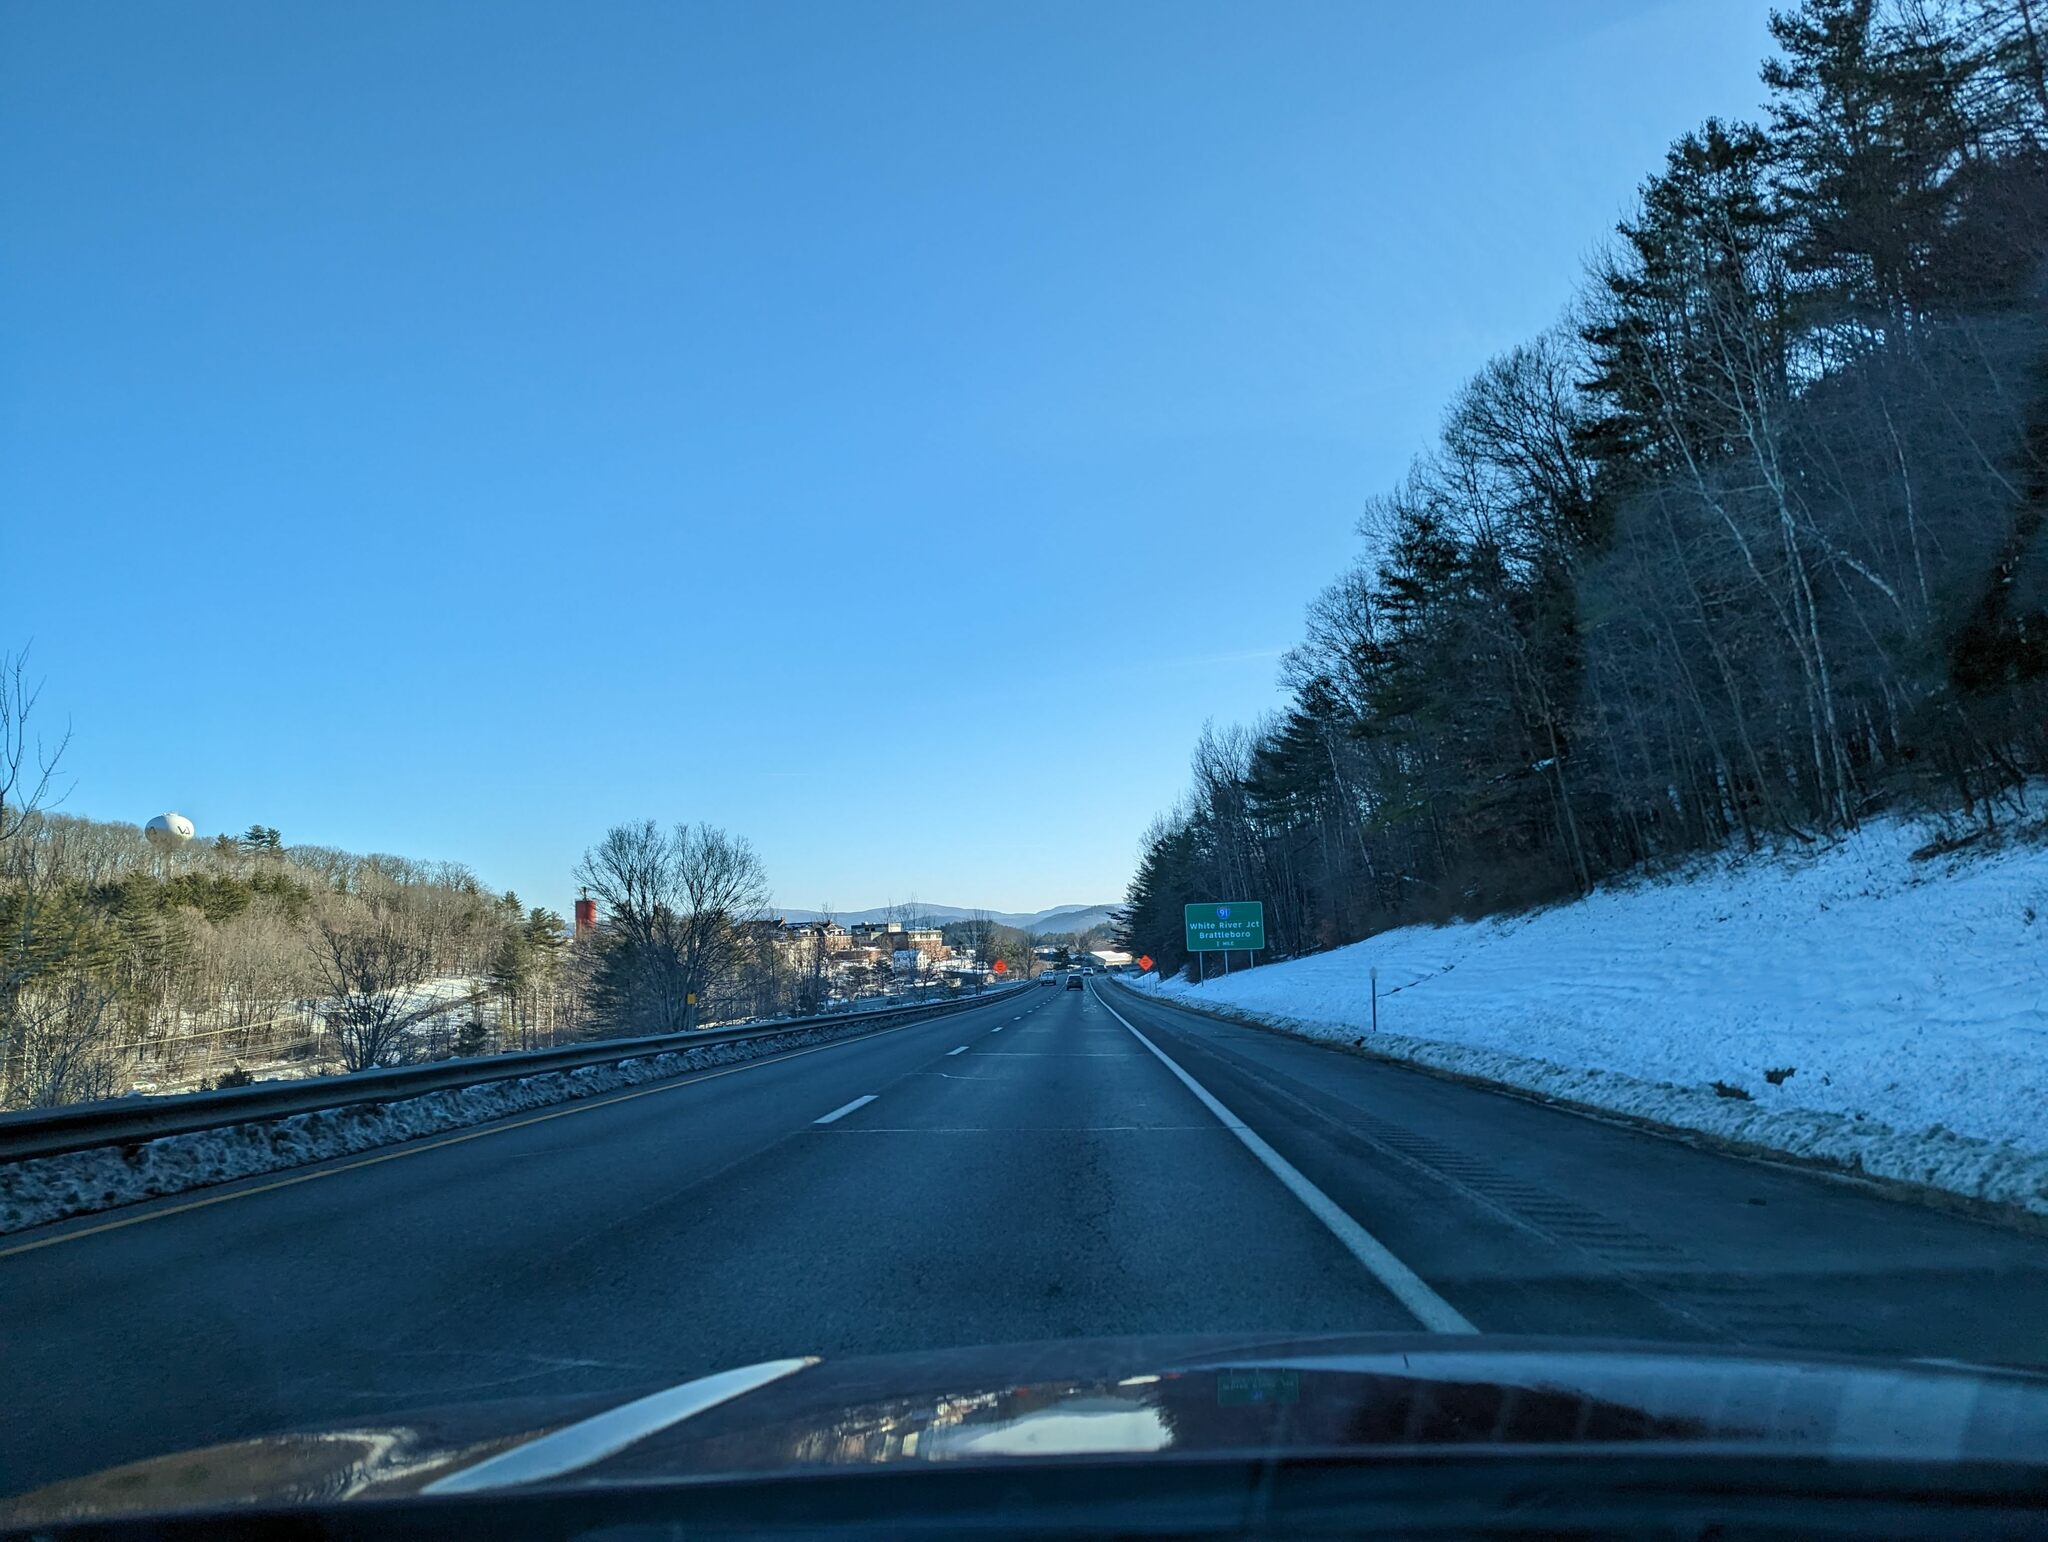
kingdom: Plantae
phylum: Tracheophyta
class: Pinopsida
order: Pinales
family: Pinaceae
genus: Pinus
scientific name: Pinus strobus
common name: Weymouth pine
